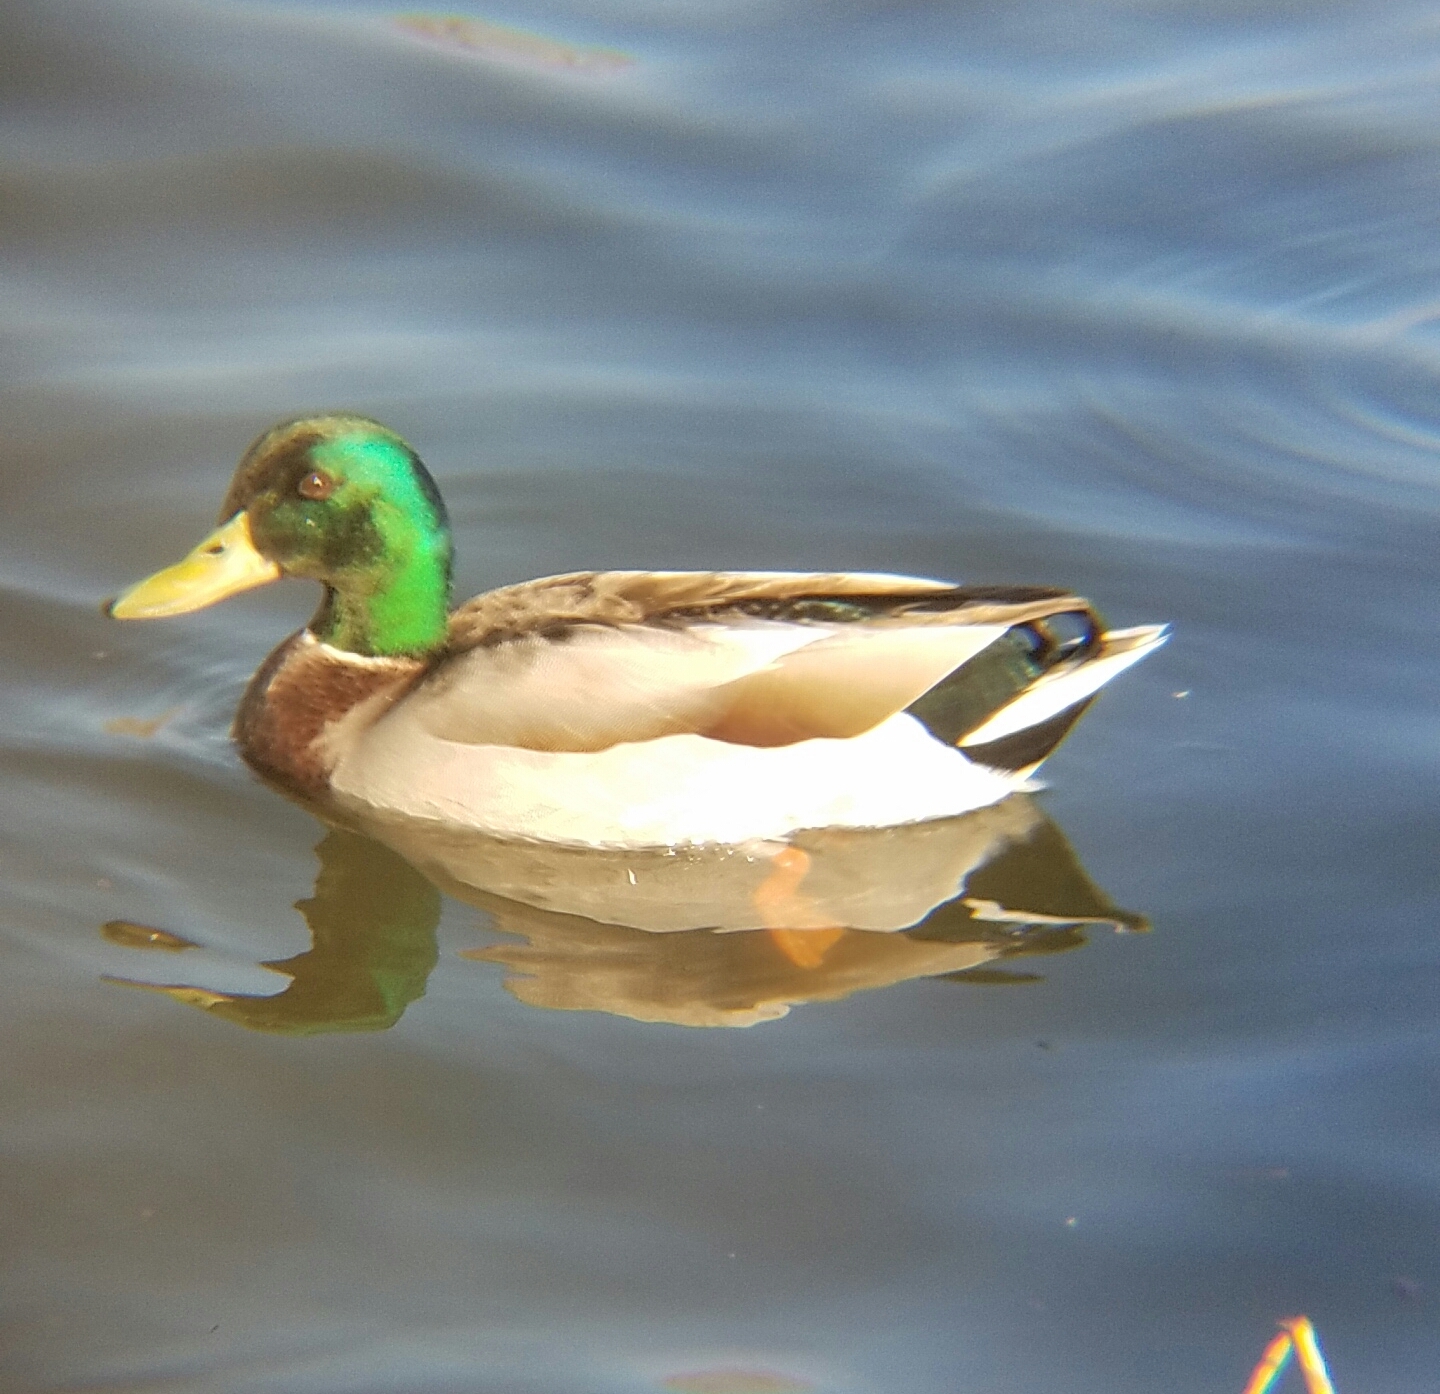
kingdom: Animalia
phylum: Chordata
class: Aves
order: Anseriformes
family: Anatidae
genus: Anas
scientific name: Anas platyrhynchos
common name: Mallard
